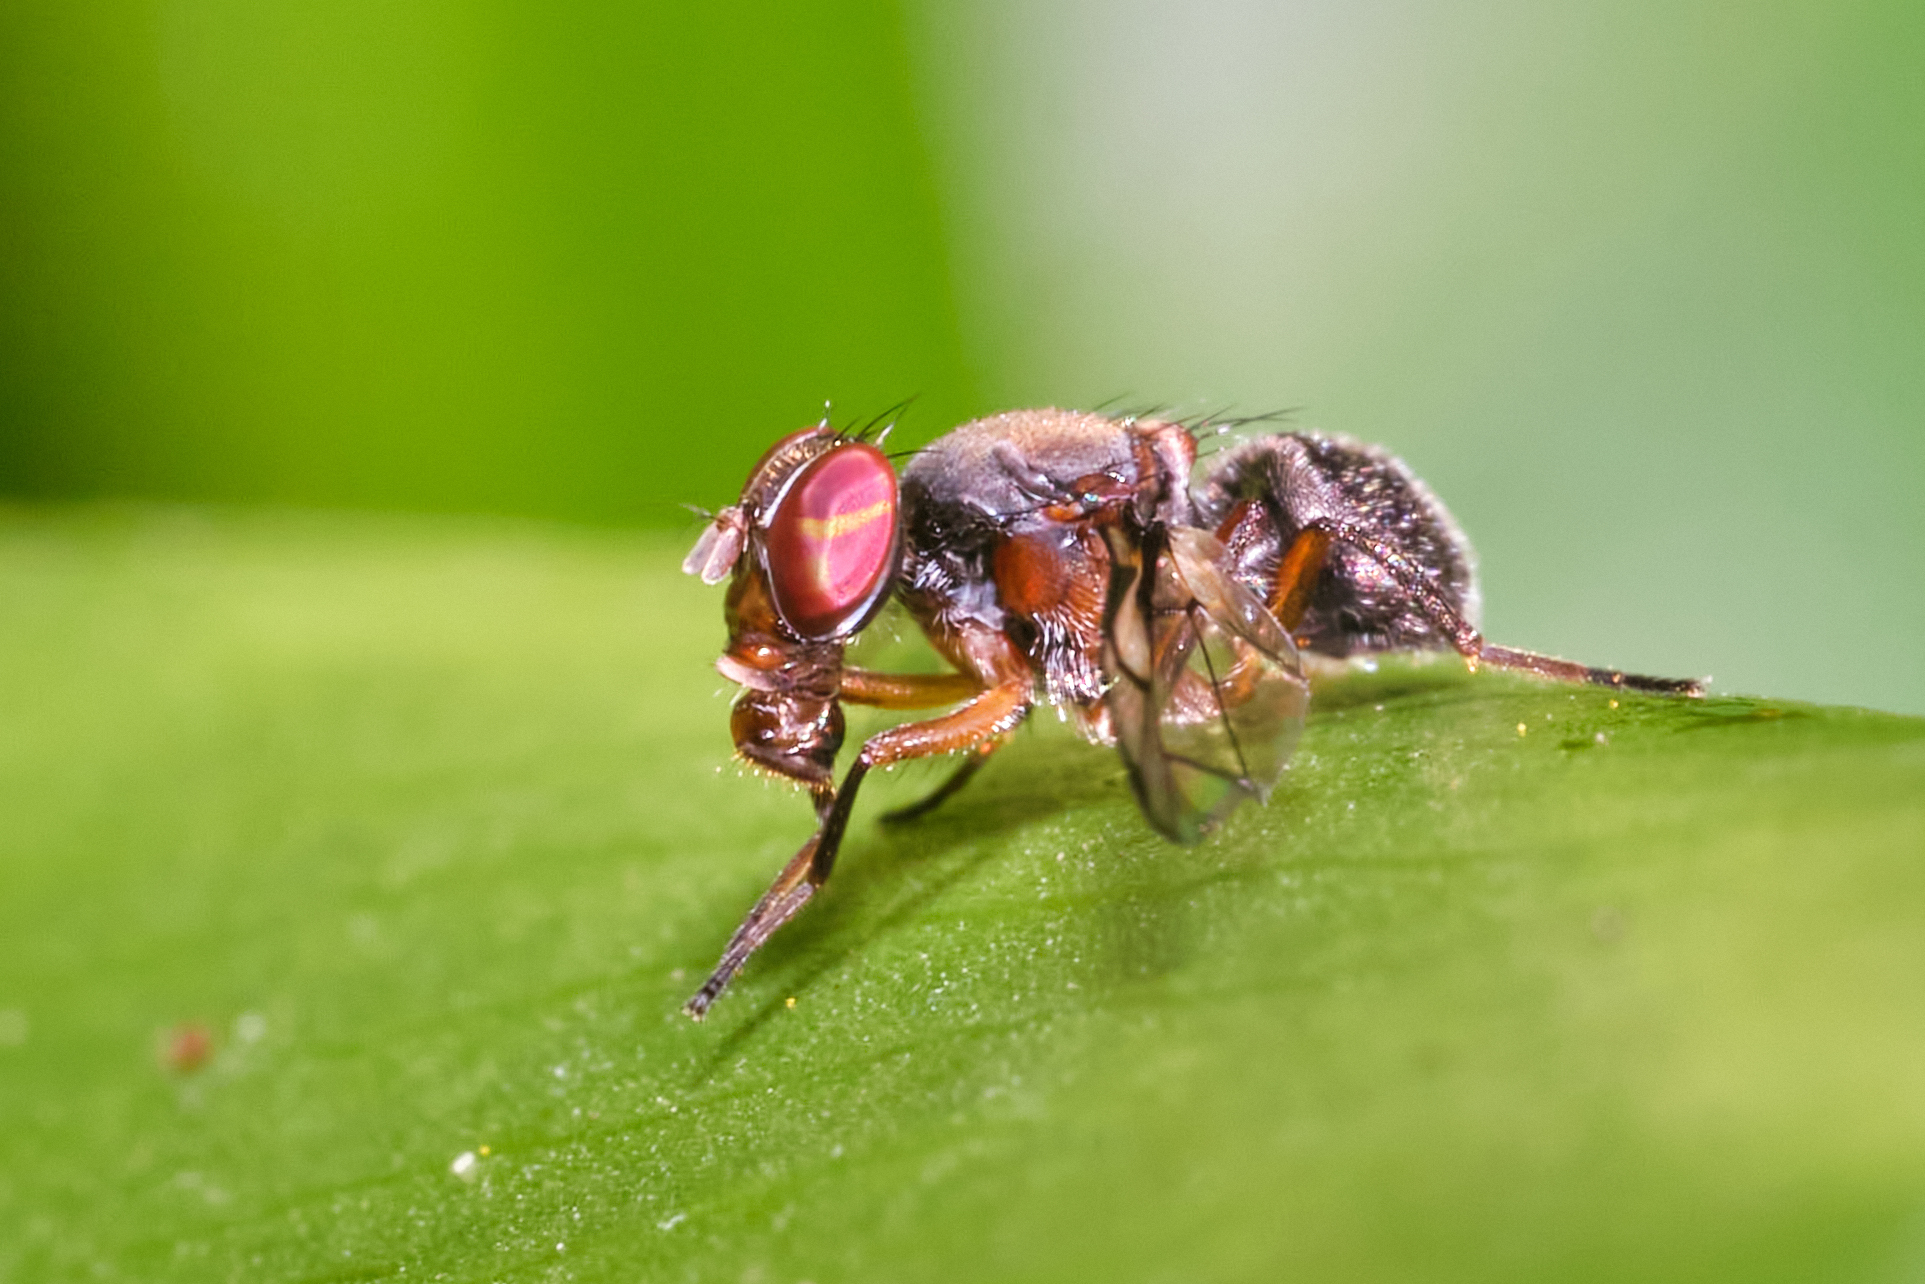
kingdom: Animalia
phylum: Arthropoda
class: Insecta
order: Diptera
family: Platystomatidae
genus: Pogonortalis
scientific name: Pogonortalis doclea
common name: Boatman fly
